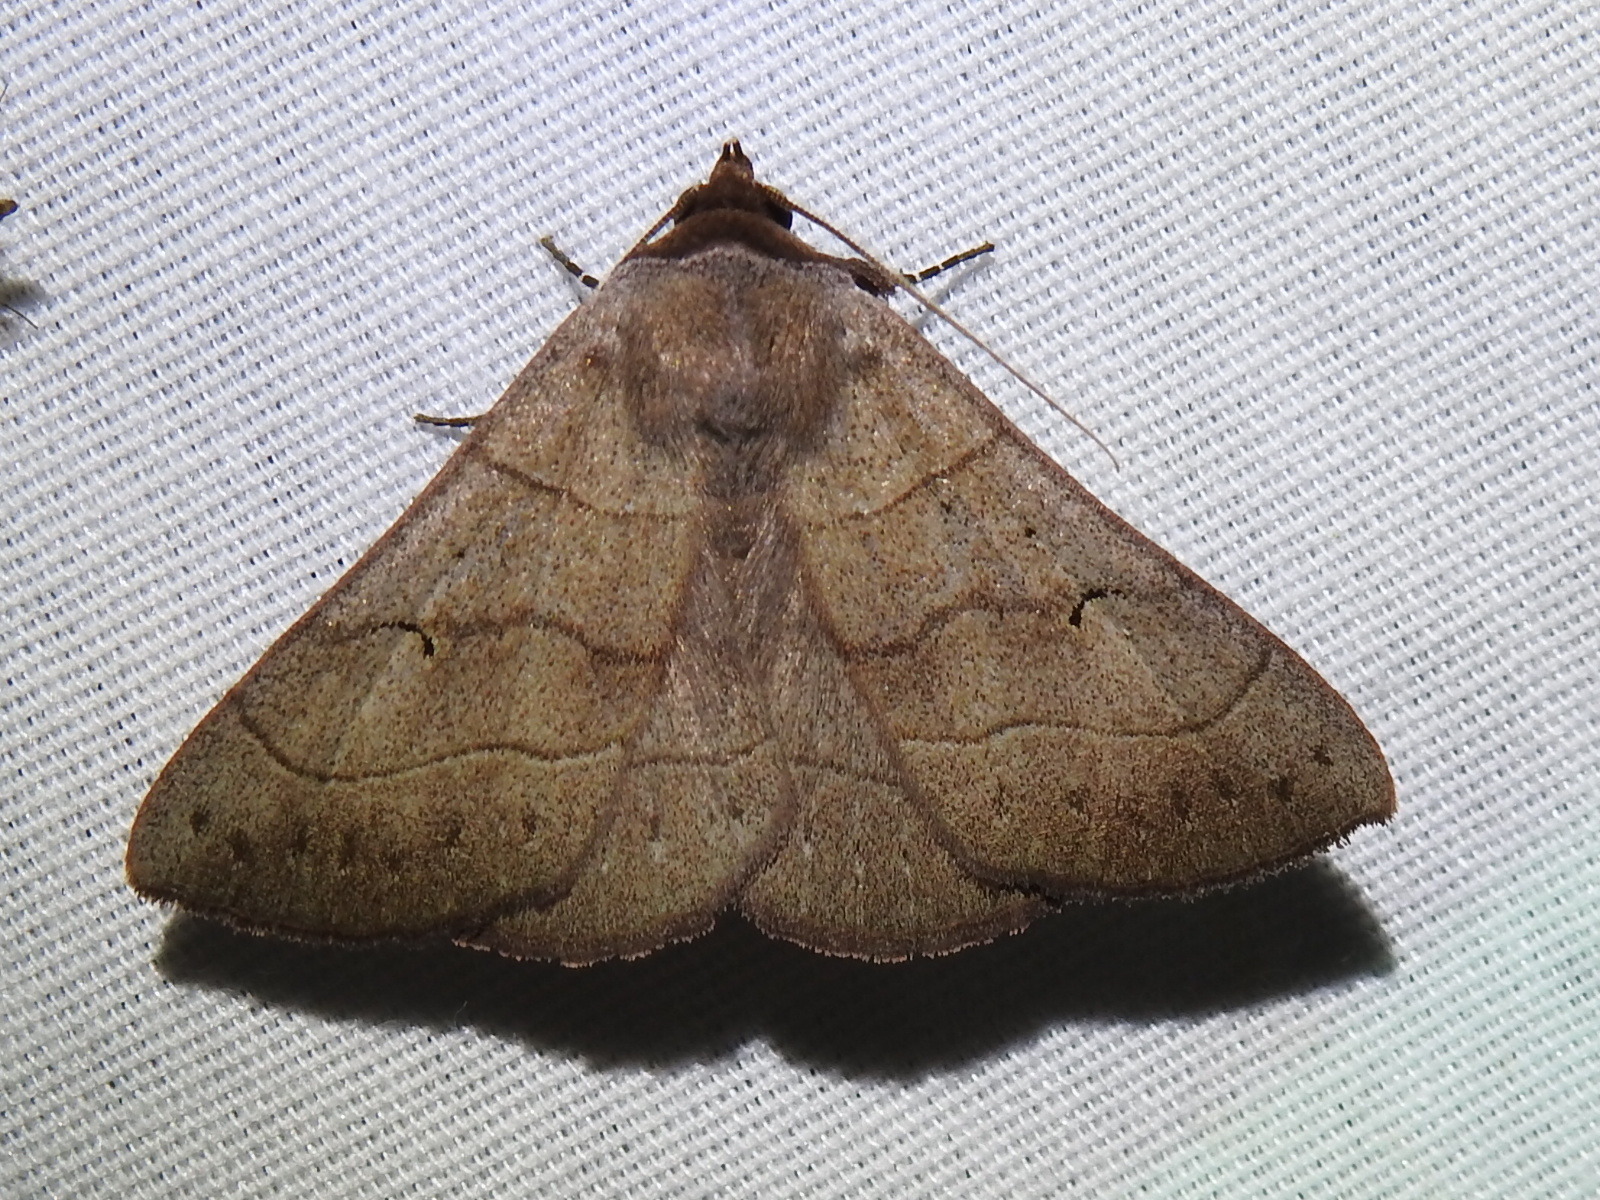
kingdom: Animalia
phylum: Arthropoda
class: Insecta
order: Lepidoptera
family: Erebidae
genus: Panopoda
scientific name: Panopoda carneicosta
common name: Brown panopoda moth
